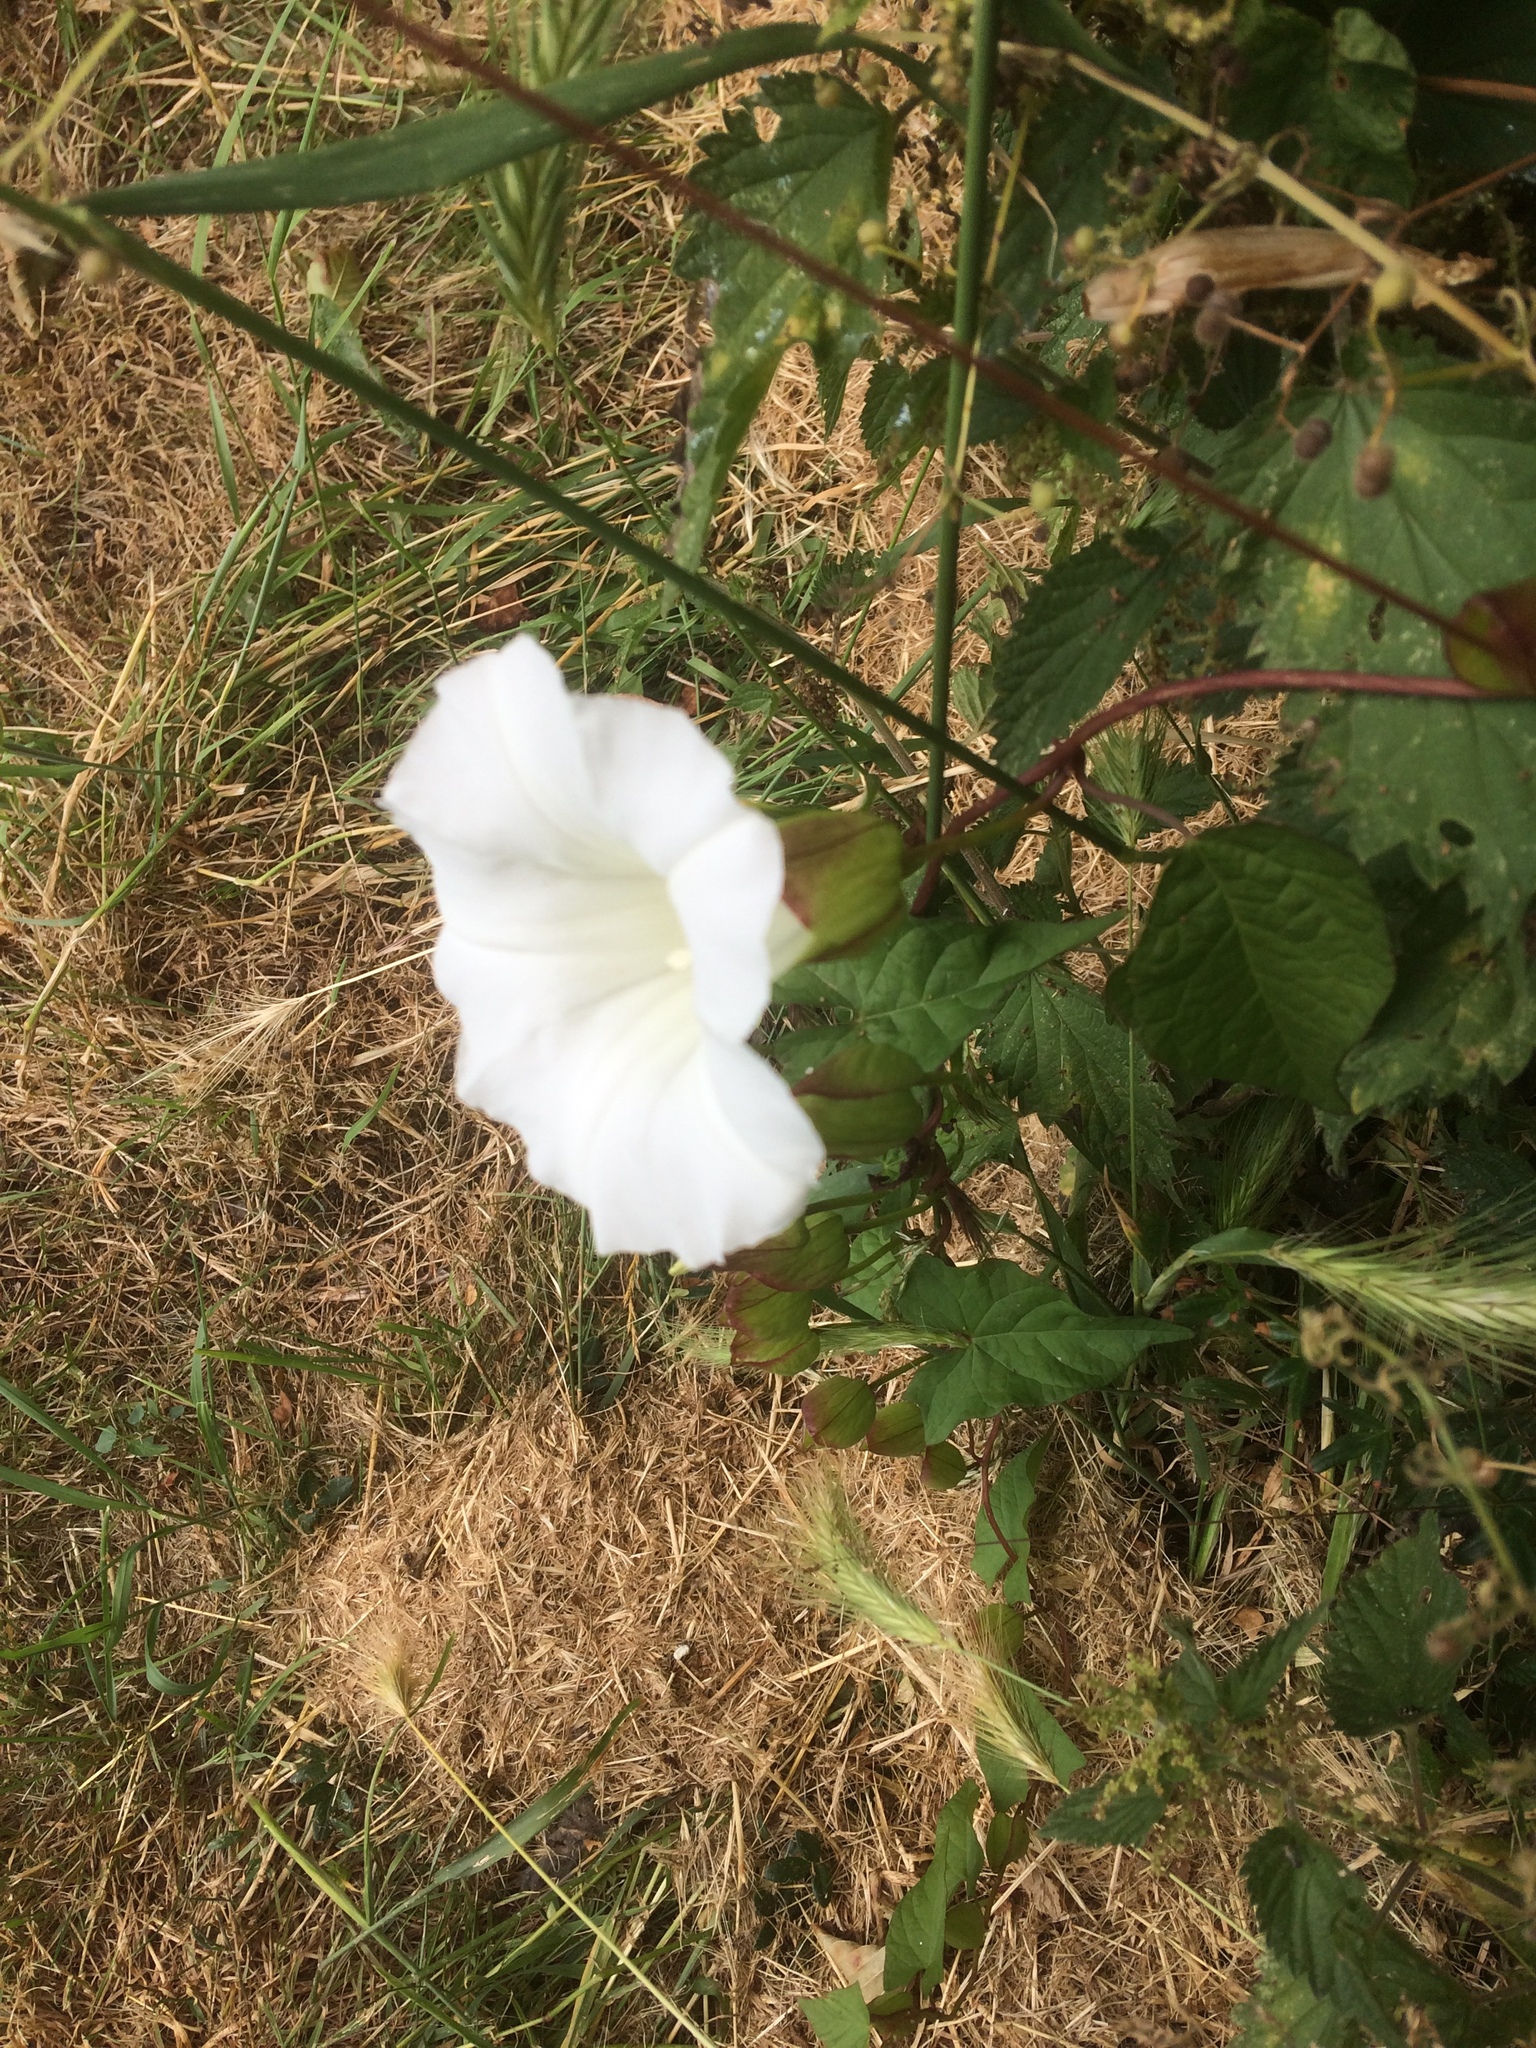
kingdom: Plantae
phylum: Tracheophyta
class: Magnoliopsida
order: Solanales
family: Convolvulaceae
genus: Calystegia
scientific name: Calystegia silvatica
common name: Large bindweed
